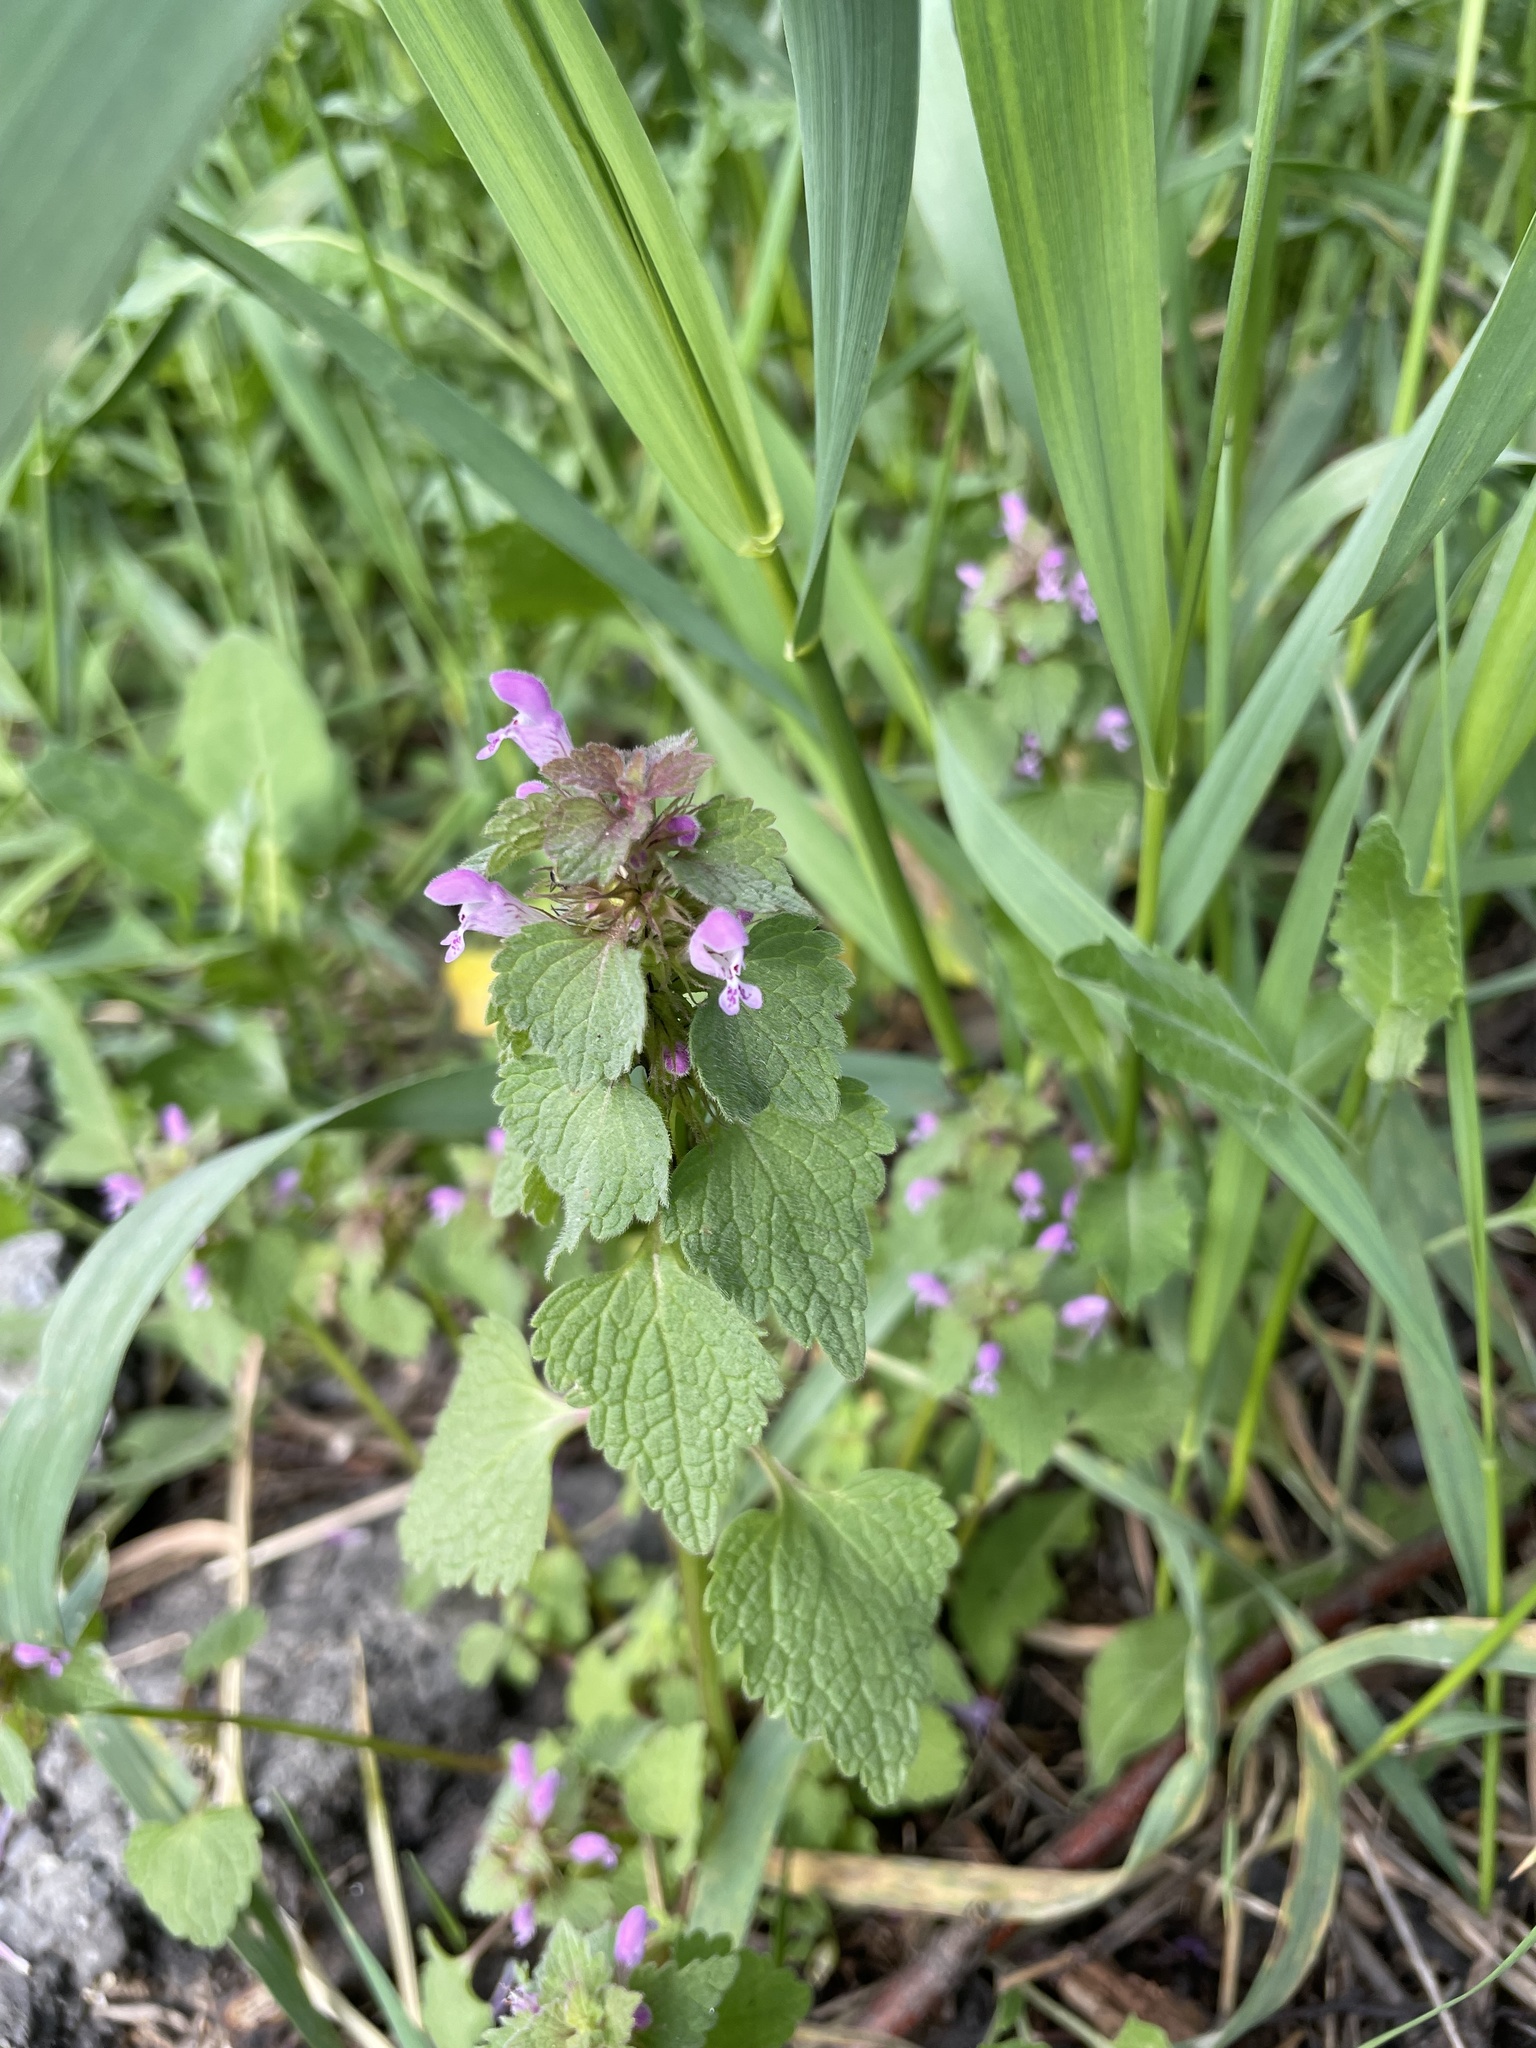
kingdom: Plantae
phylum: Tracheophyta
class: Magnoliopsida
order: Lamiales
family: Lamiaceae
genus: Lamium
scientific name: Lamium purpureum
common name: Red dead-nettle
